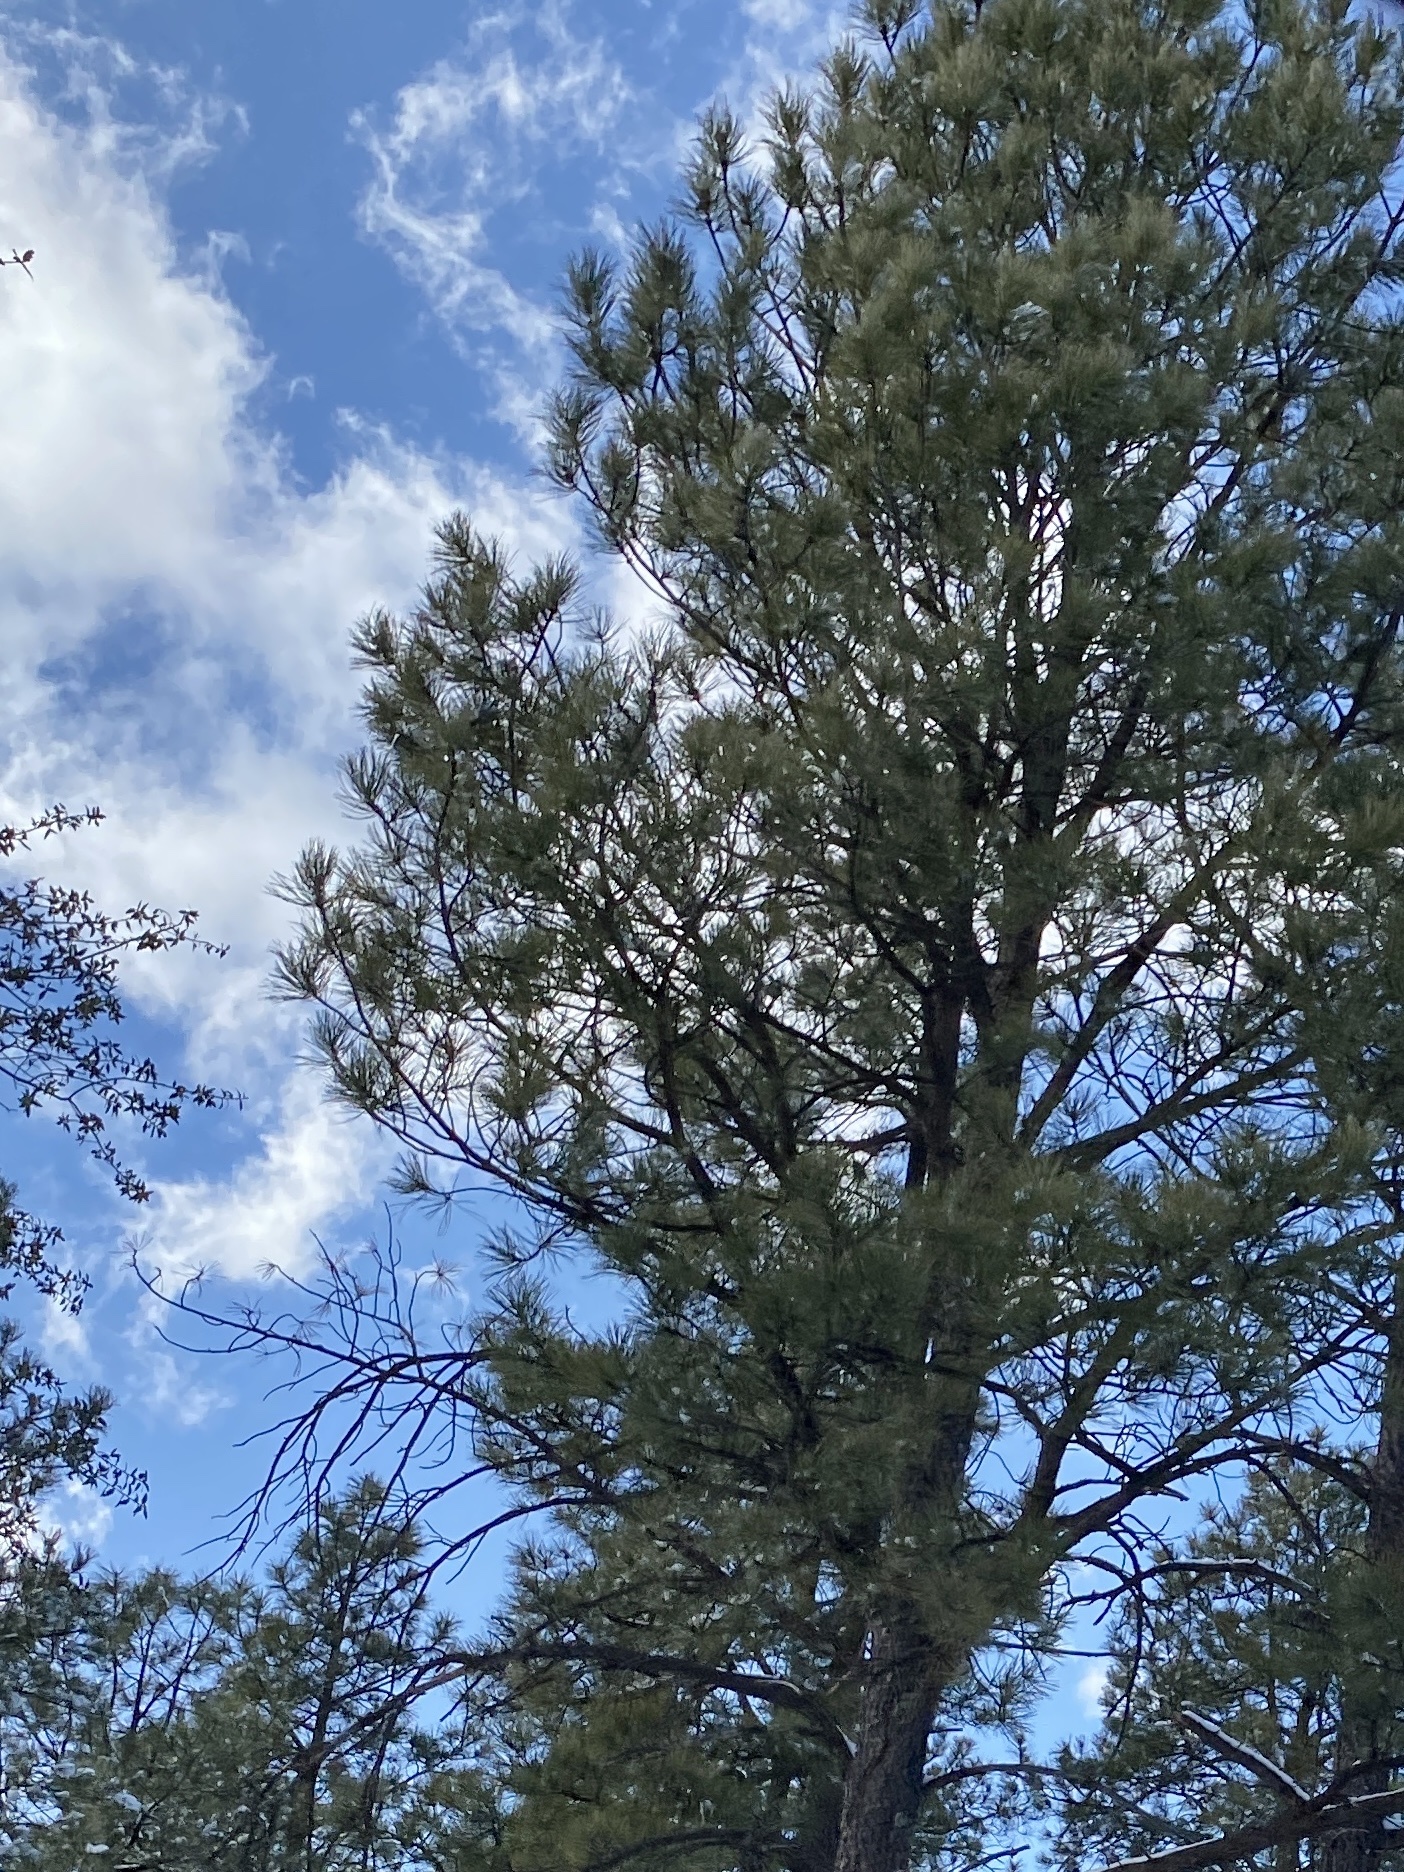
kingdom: Plantae
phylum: Tracheophyta
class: Pinopsida
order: Pinales
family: Pinaceae
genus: Pinus
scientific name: Pinus ponderosa
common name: Western yellow-pine
